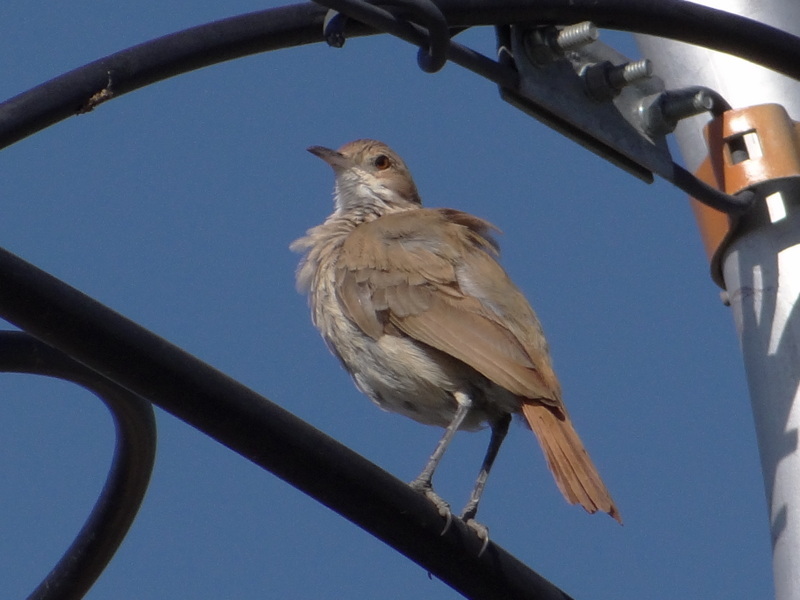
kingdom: Animalia
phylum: Chordata
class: Aves
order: Passeriformes
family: Furnariidae
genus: Furnarius
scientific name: Furnarius rufus
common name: Rufous hornero
